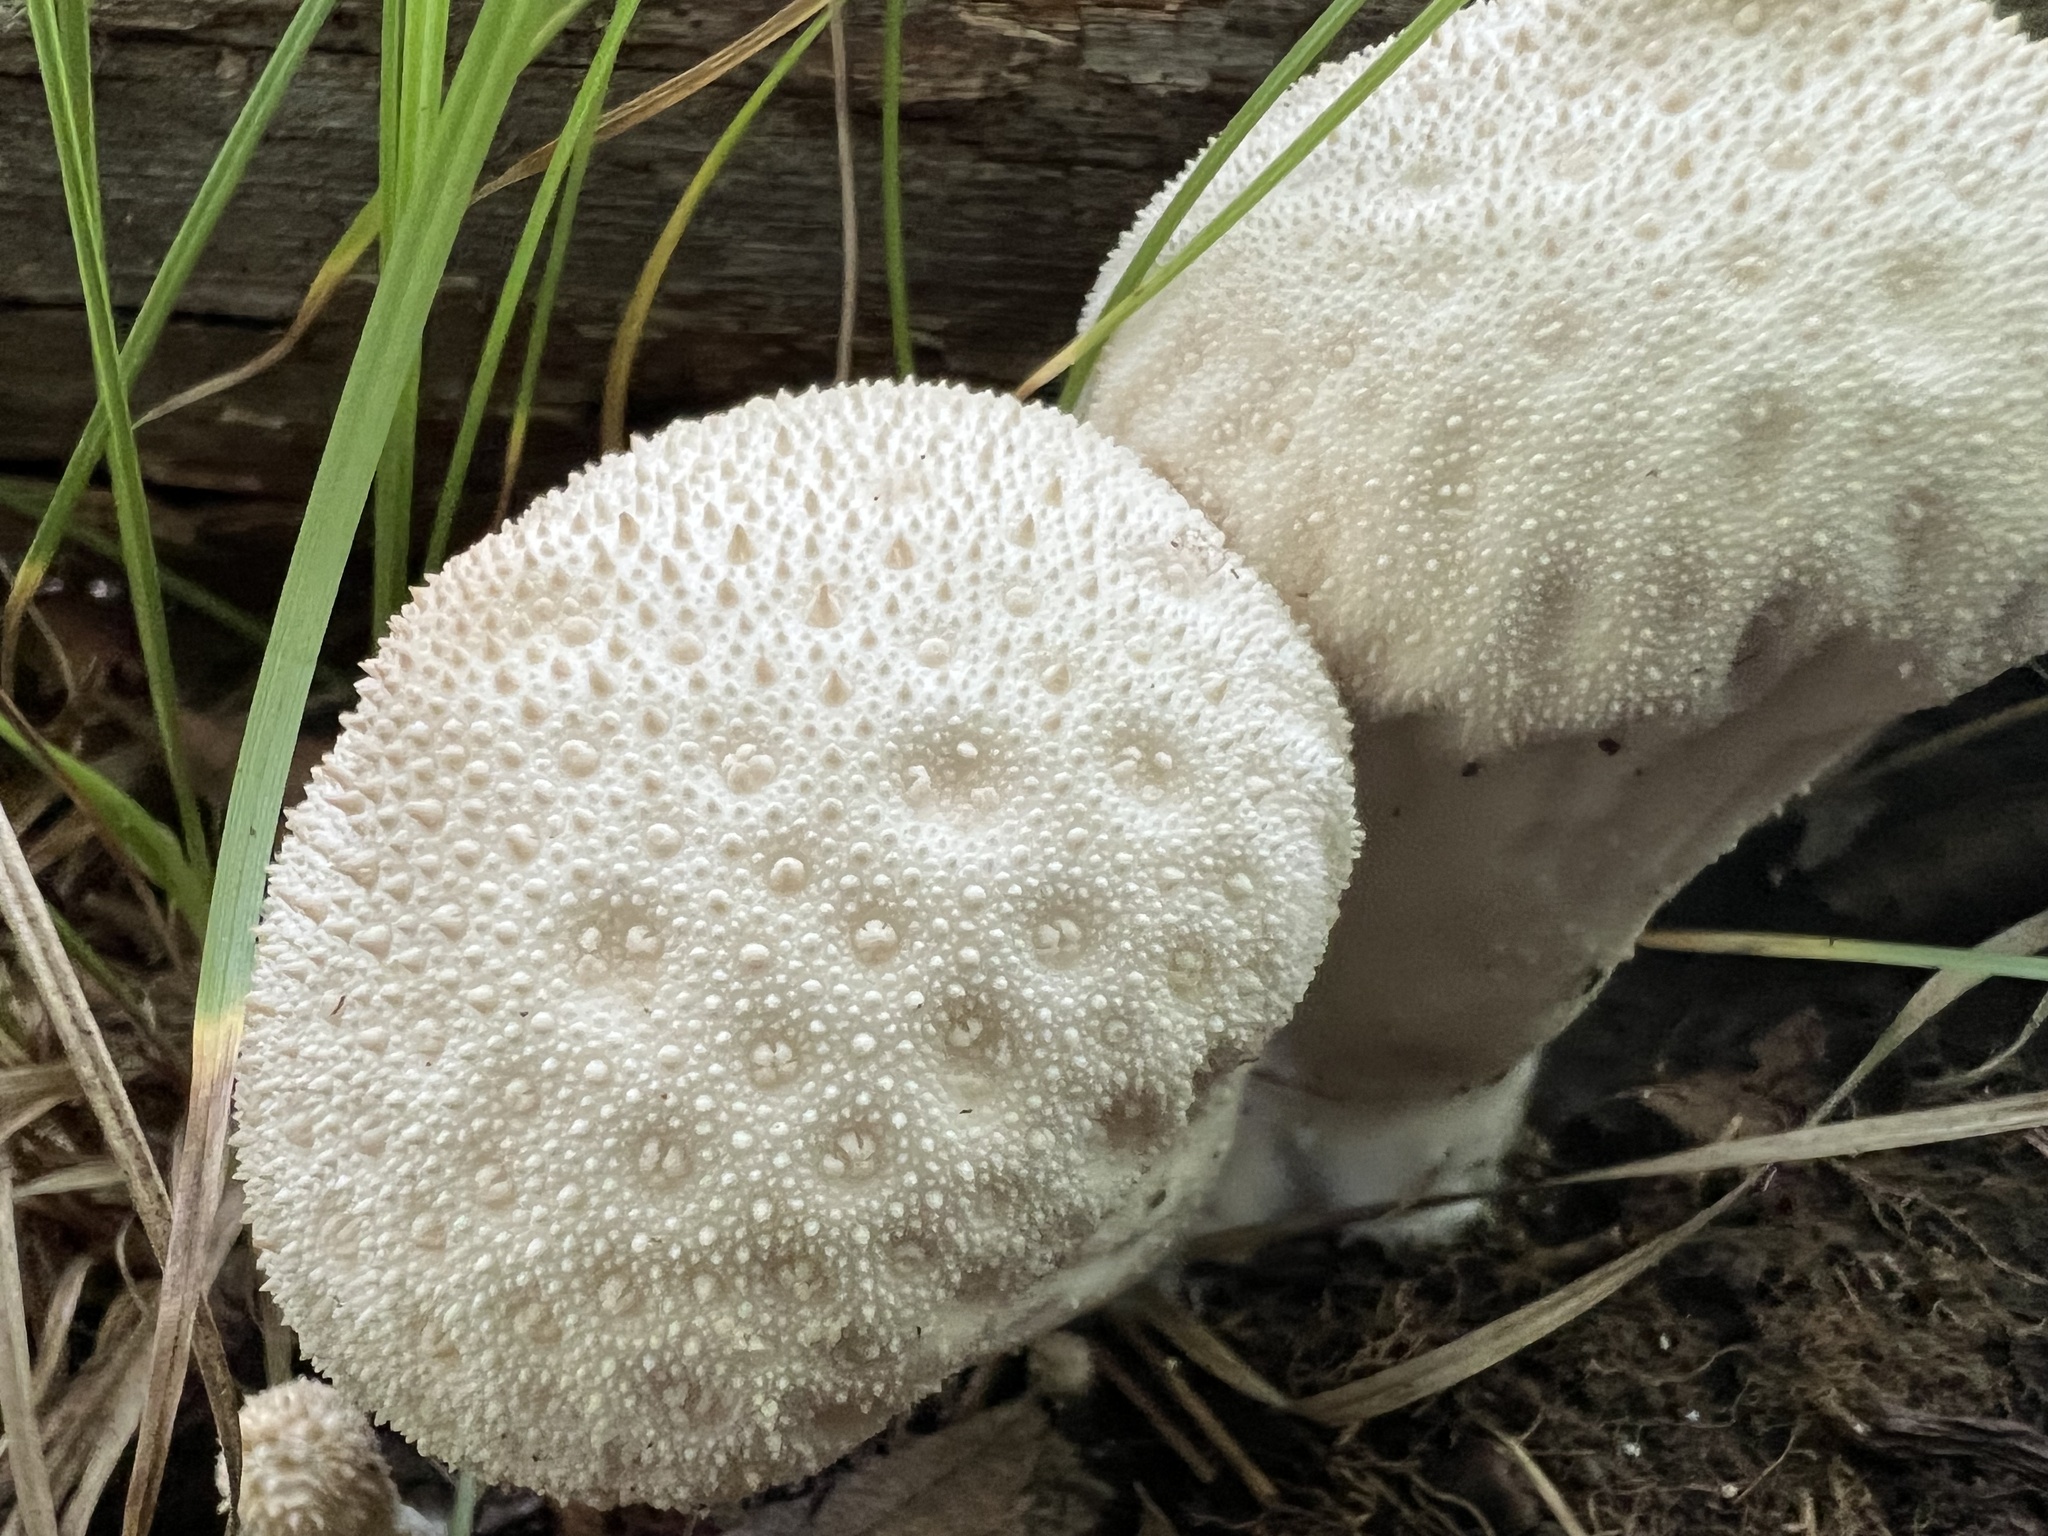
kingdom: Fungi
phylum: Basidiomycota
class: Agaricomycetes
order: Agaricales
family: Lycoperdaceae
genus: Lycoperdon
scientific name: Lycoperdon perlatum
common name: Common puffball
